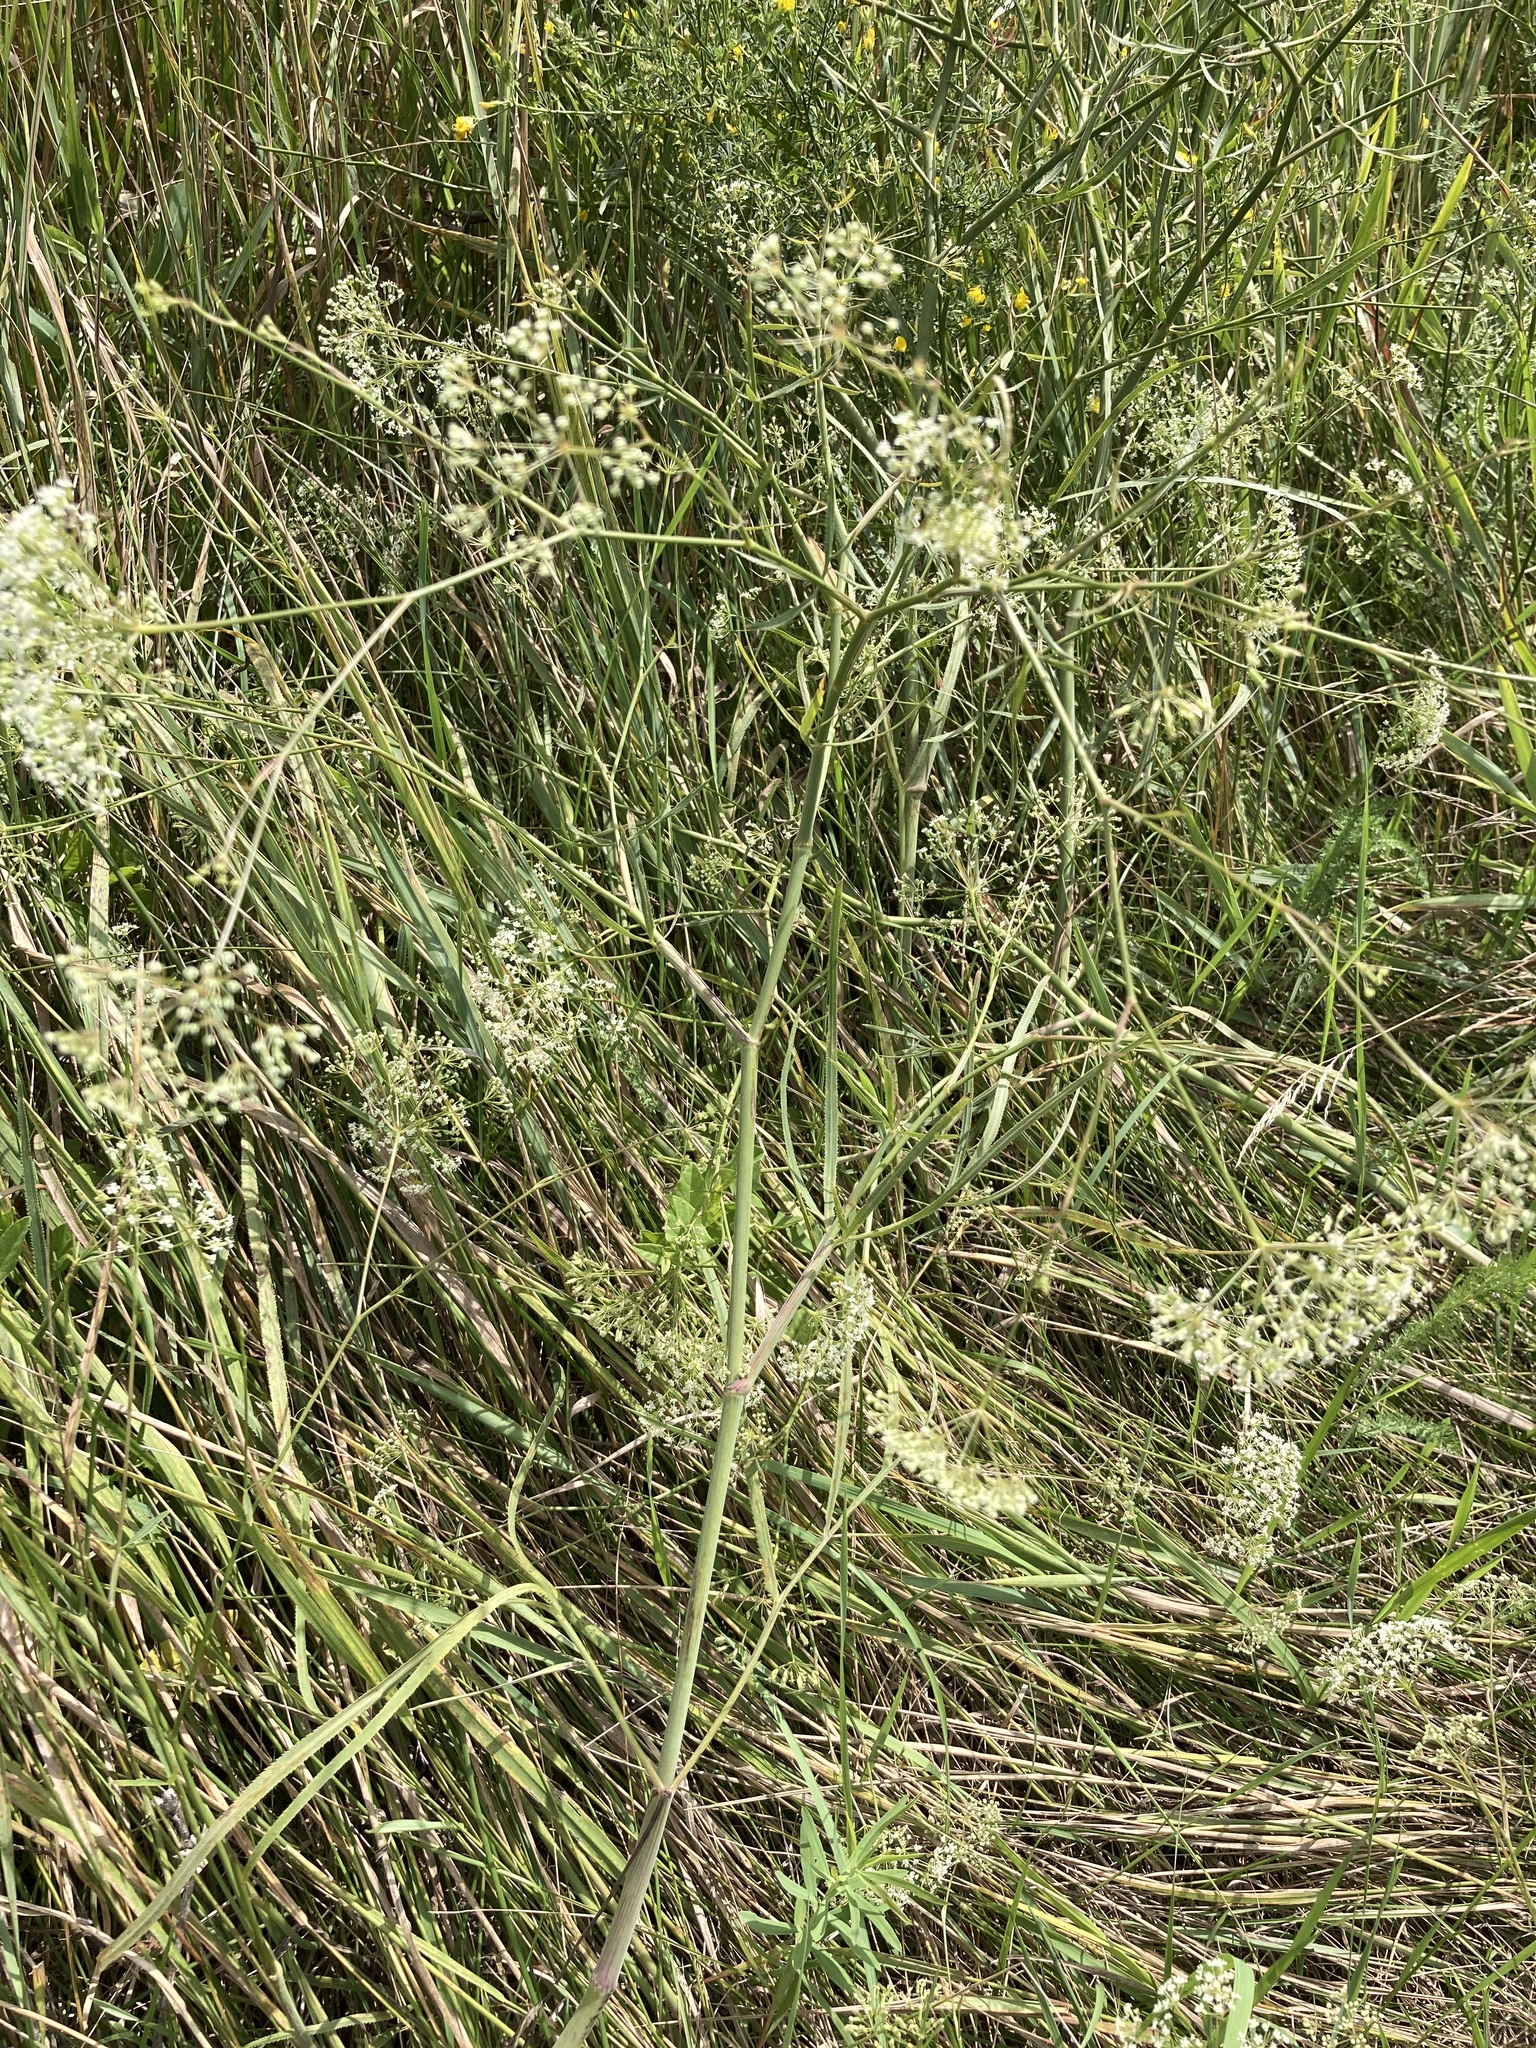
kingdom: Plantae
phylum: Tracheophyta
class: Magnoliopsida
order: Apiales
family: Apiaceae
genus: Falcaria
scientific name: Falcaria vulgaris
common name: Longleaf
